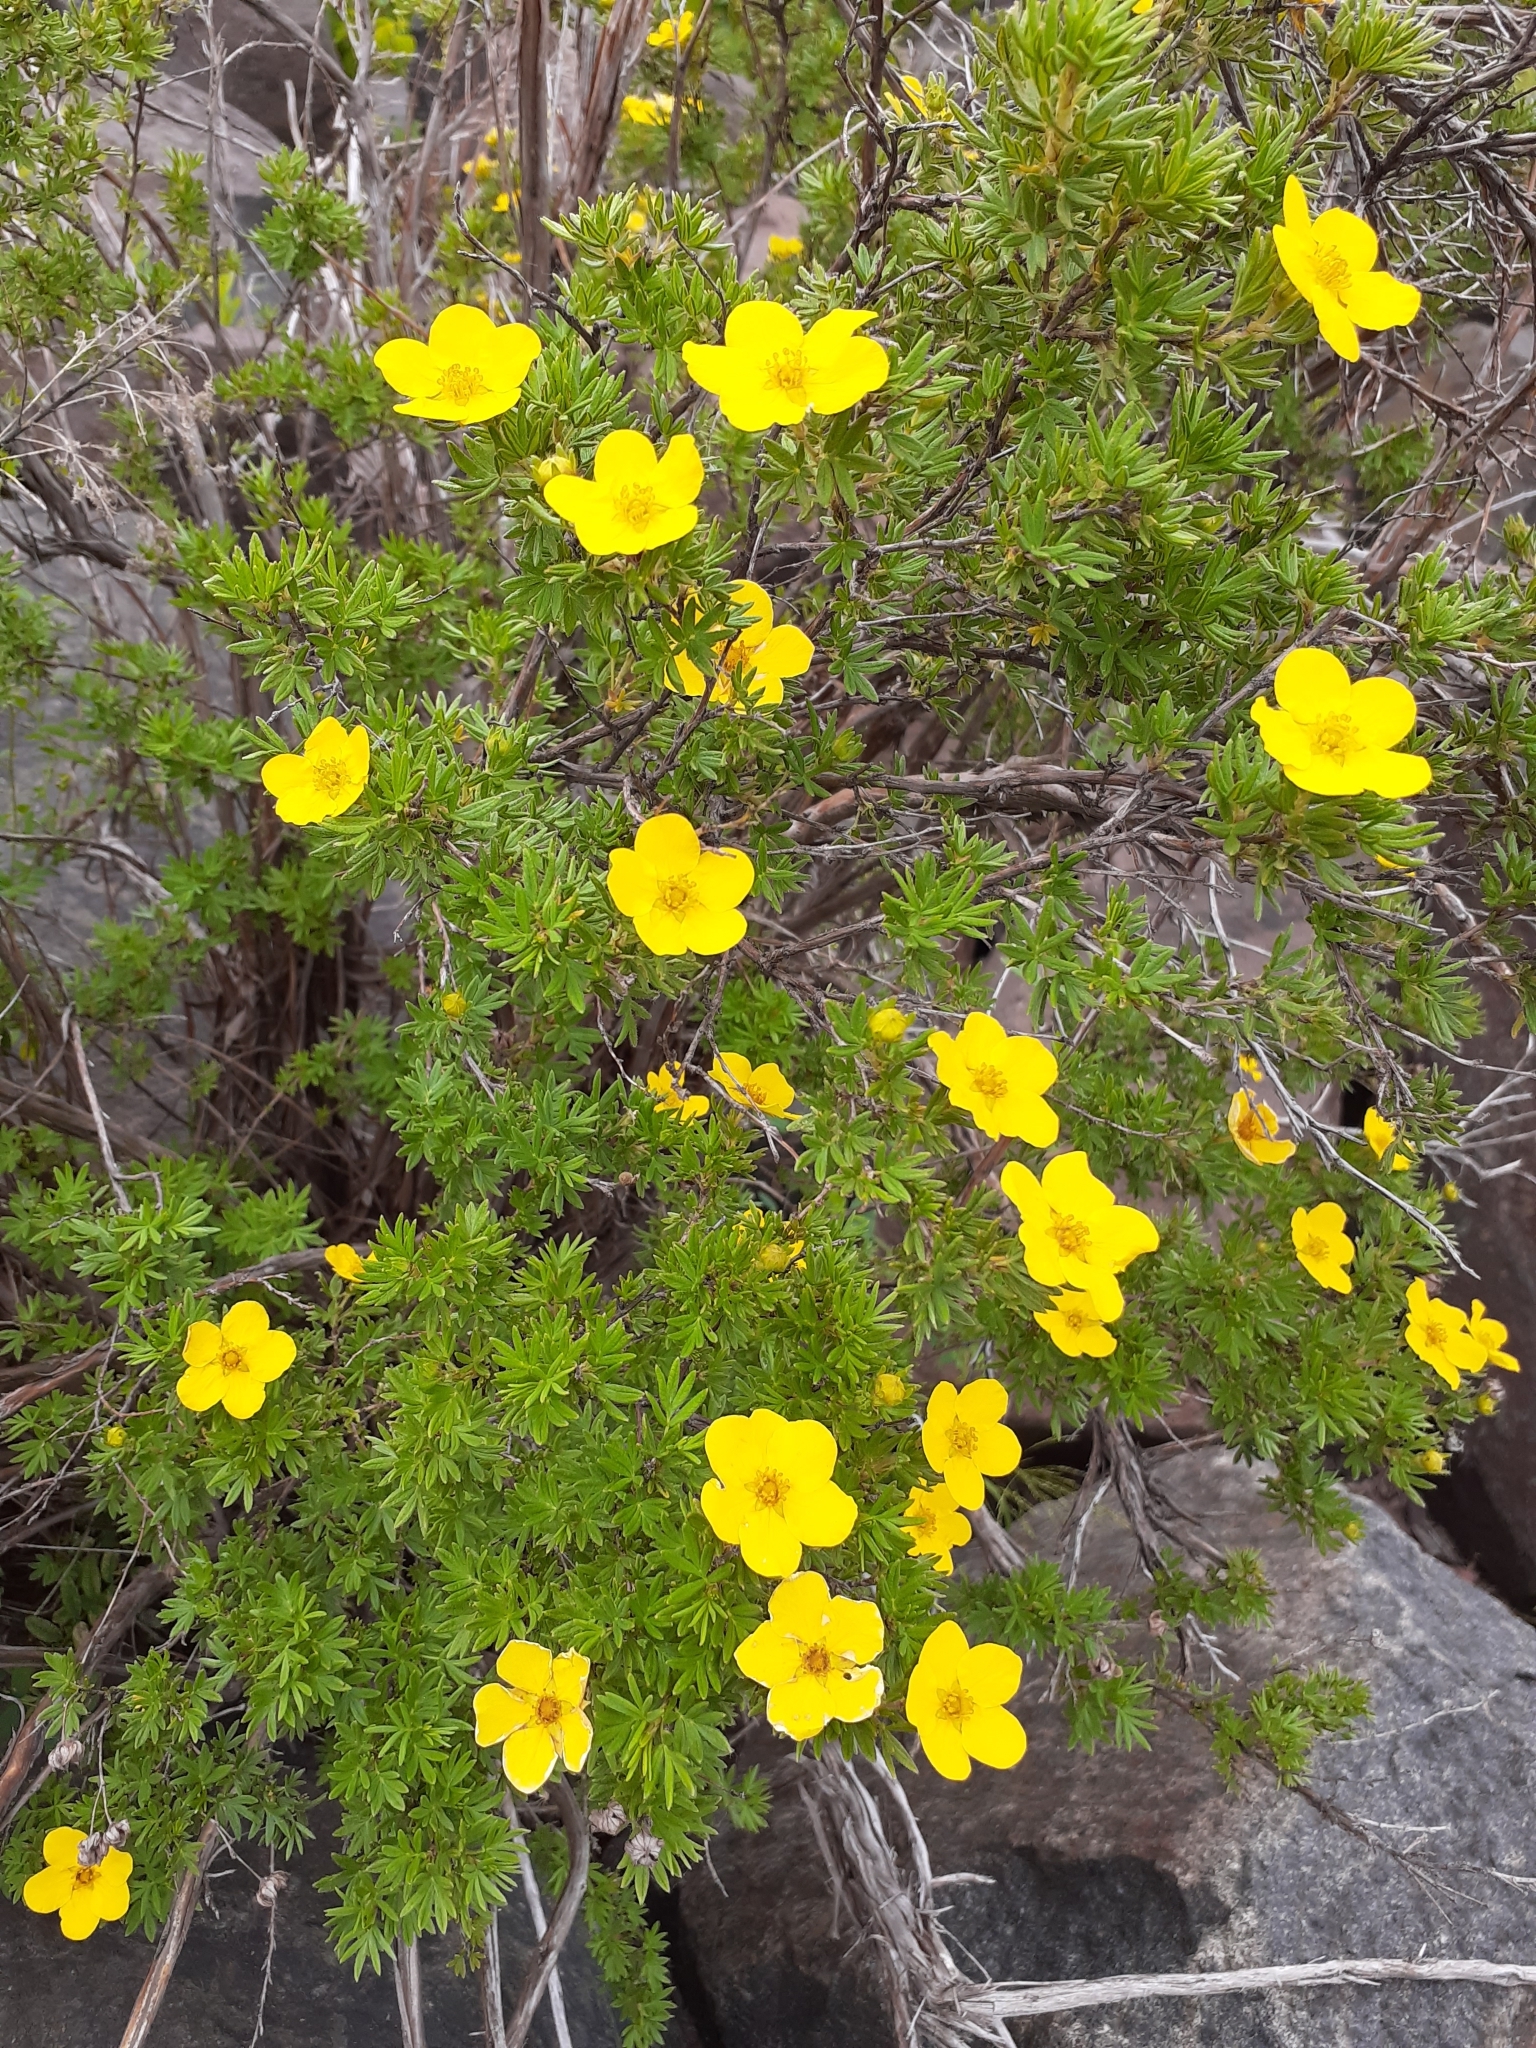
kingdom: Plantae
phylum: Tracheophyta
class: Magnoliopsida
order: Rosales
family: Rosaceae
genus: Dasiphora
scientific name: Dasiphora fruticosa
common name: Shrubby cinquefoil
